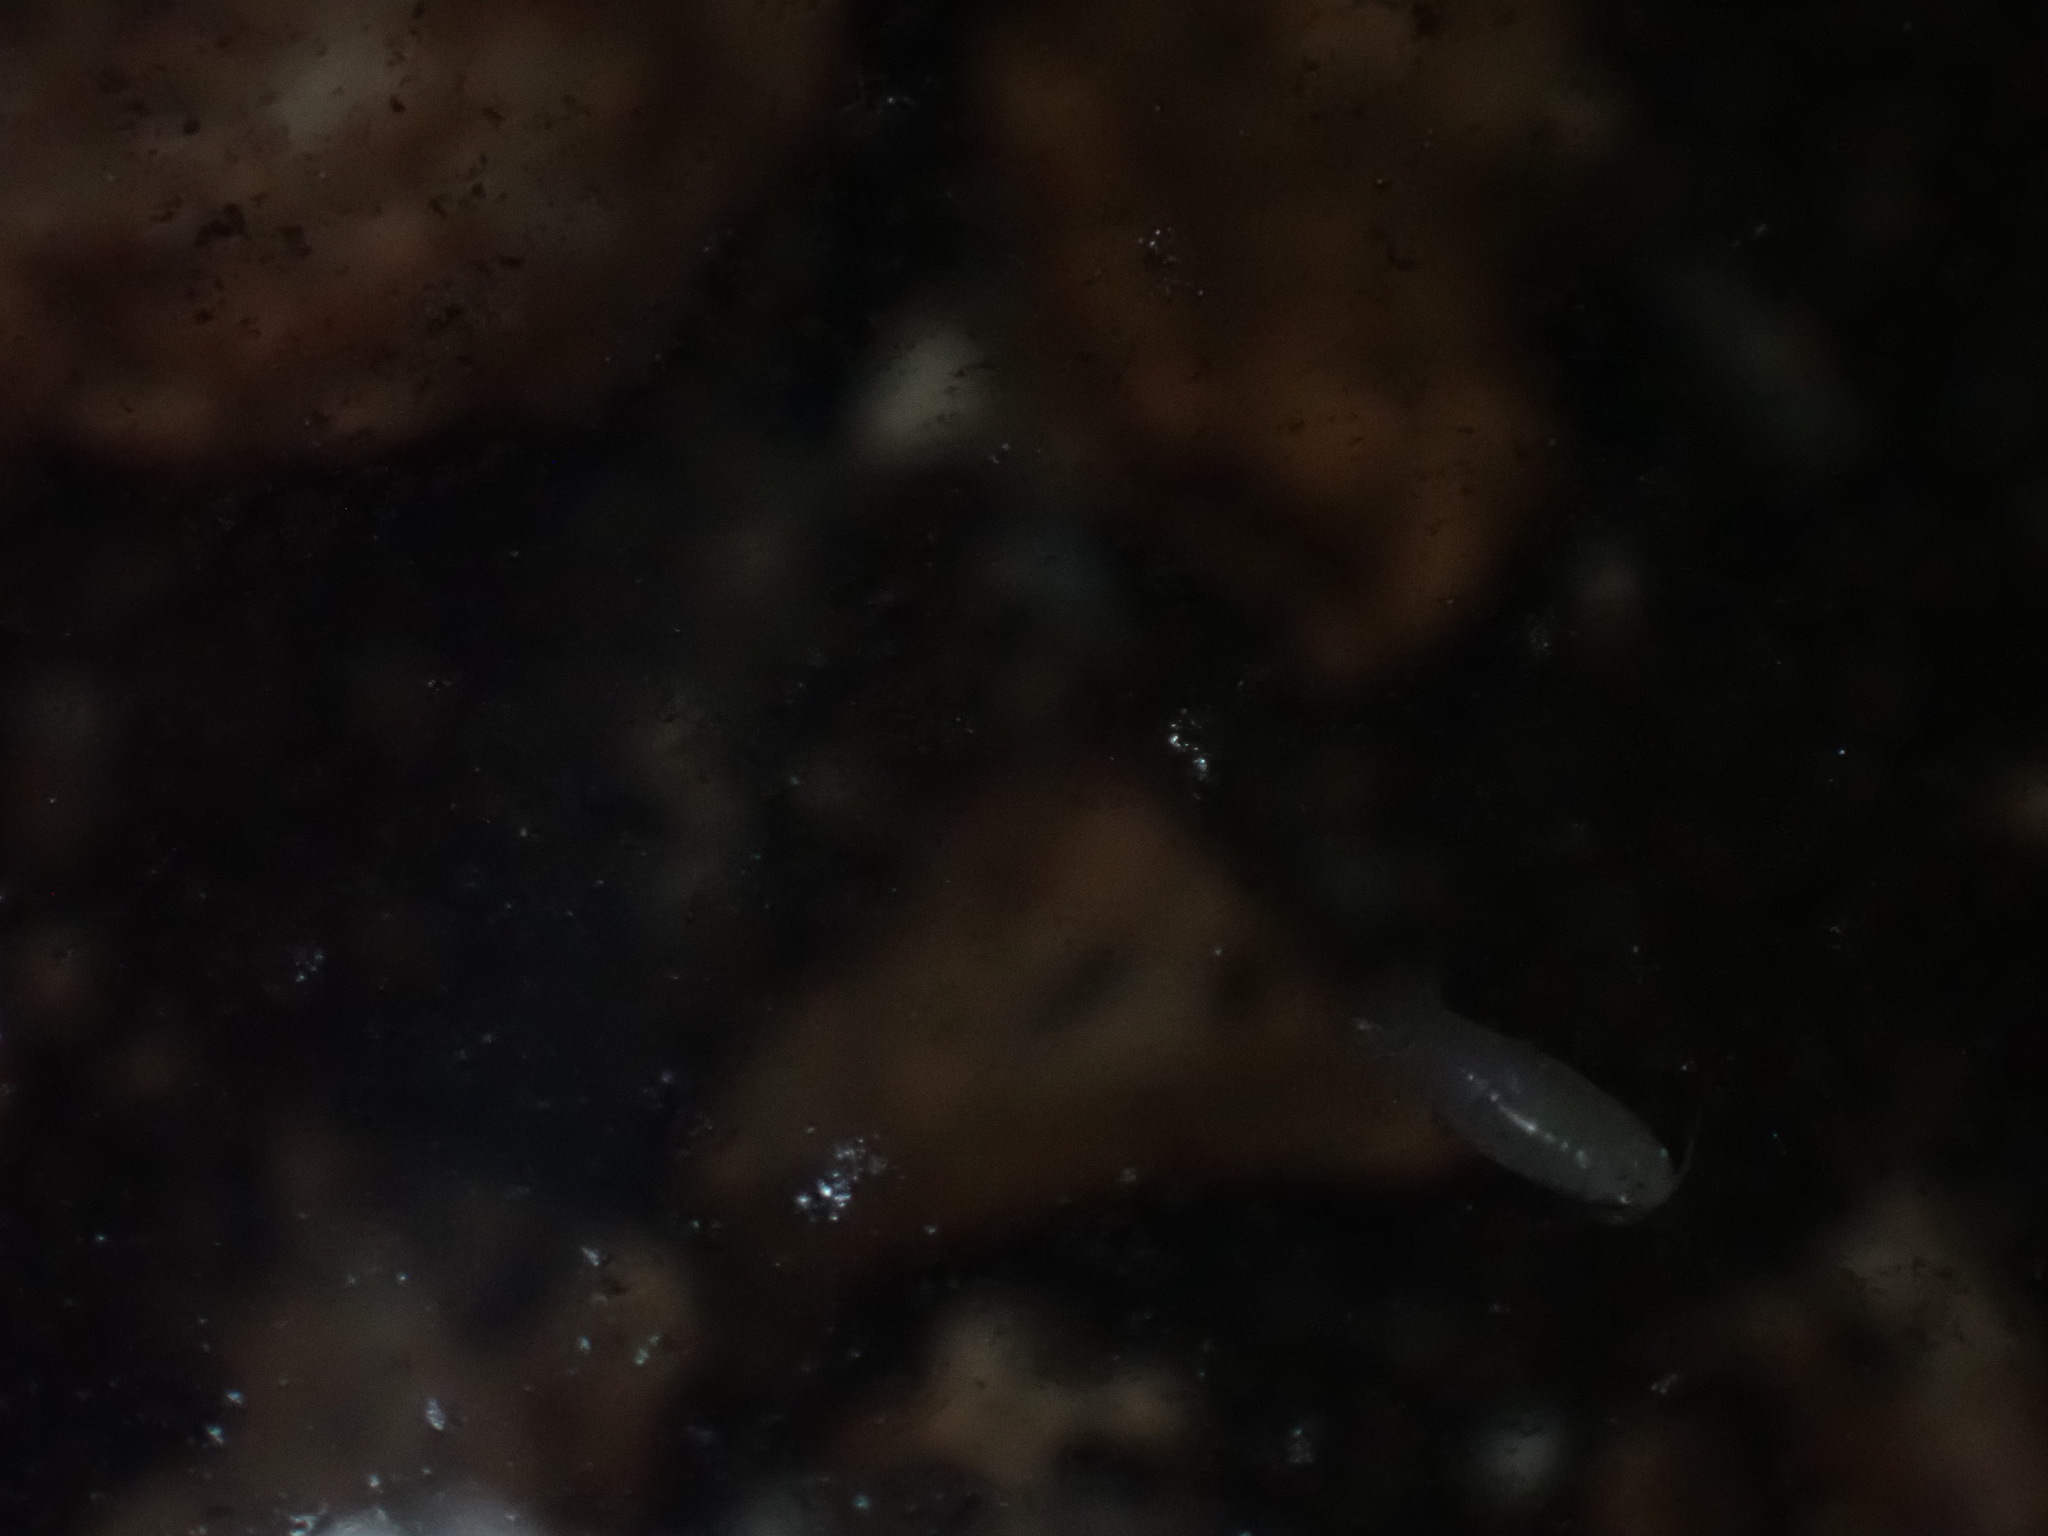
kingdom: Animalia
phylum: Arthropoda
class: Malacostraca
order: Isopoda
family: Cirolanidae
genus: Cirolana
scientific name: Cirolana crenata
